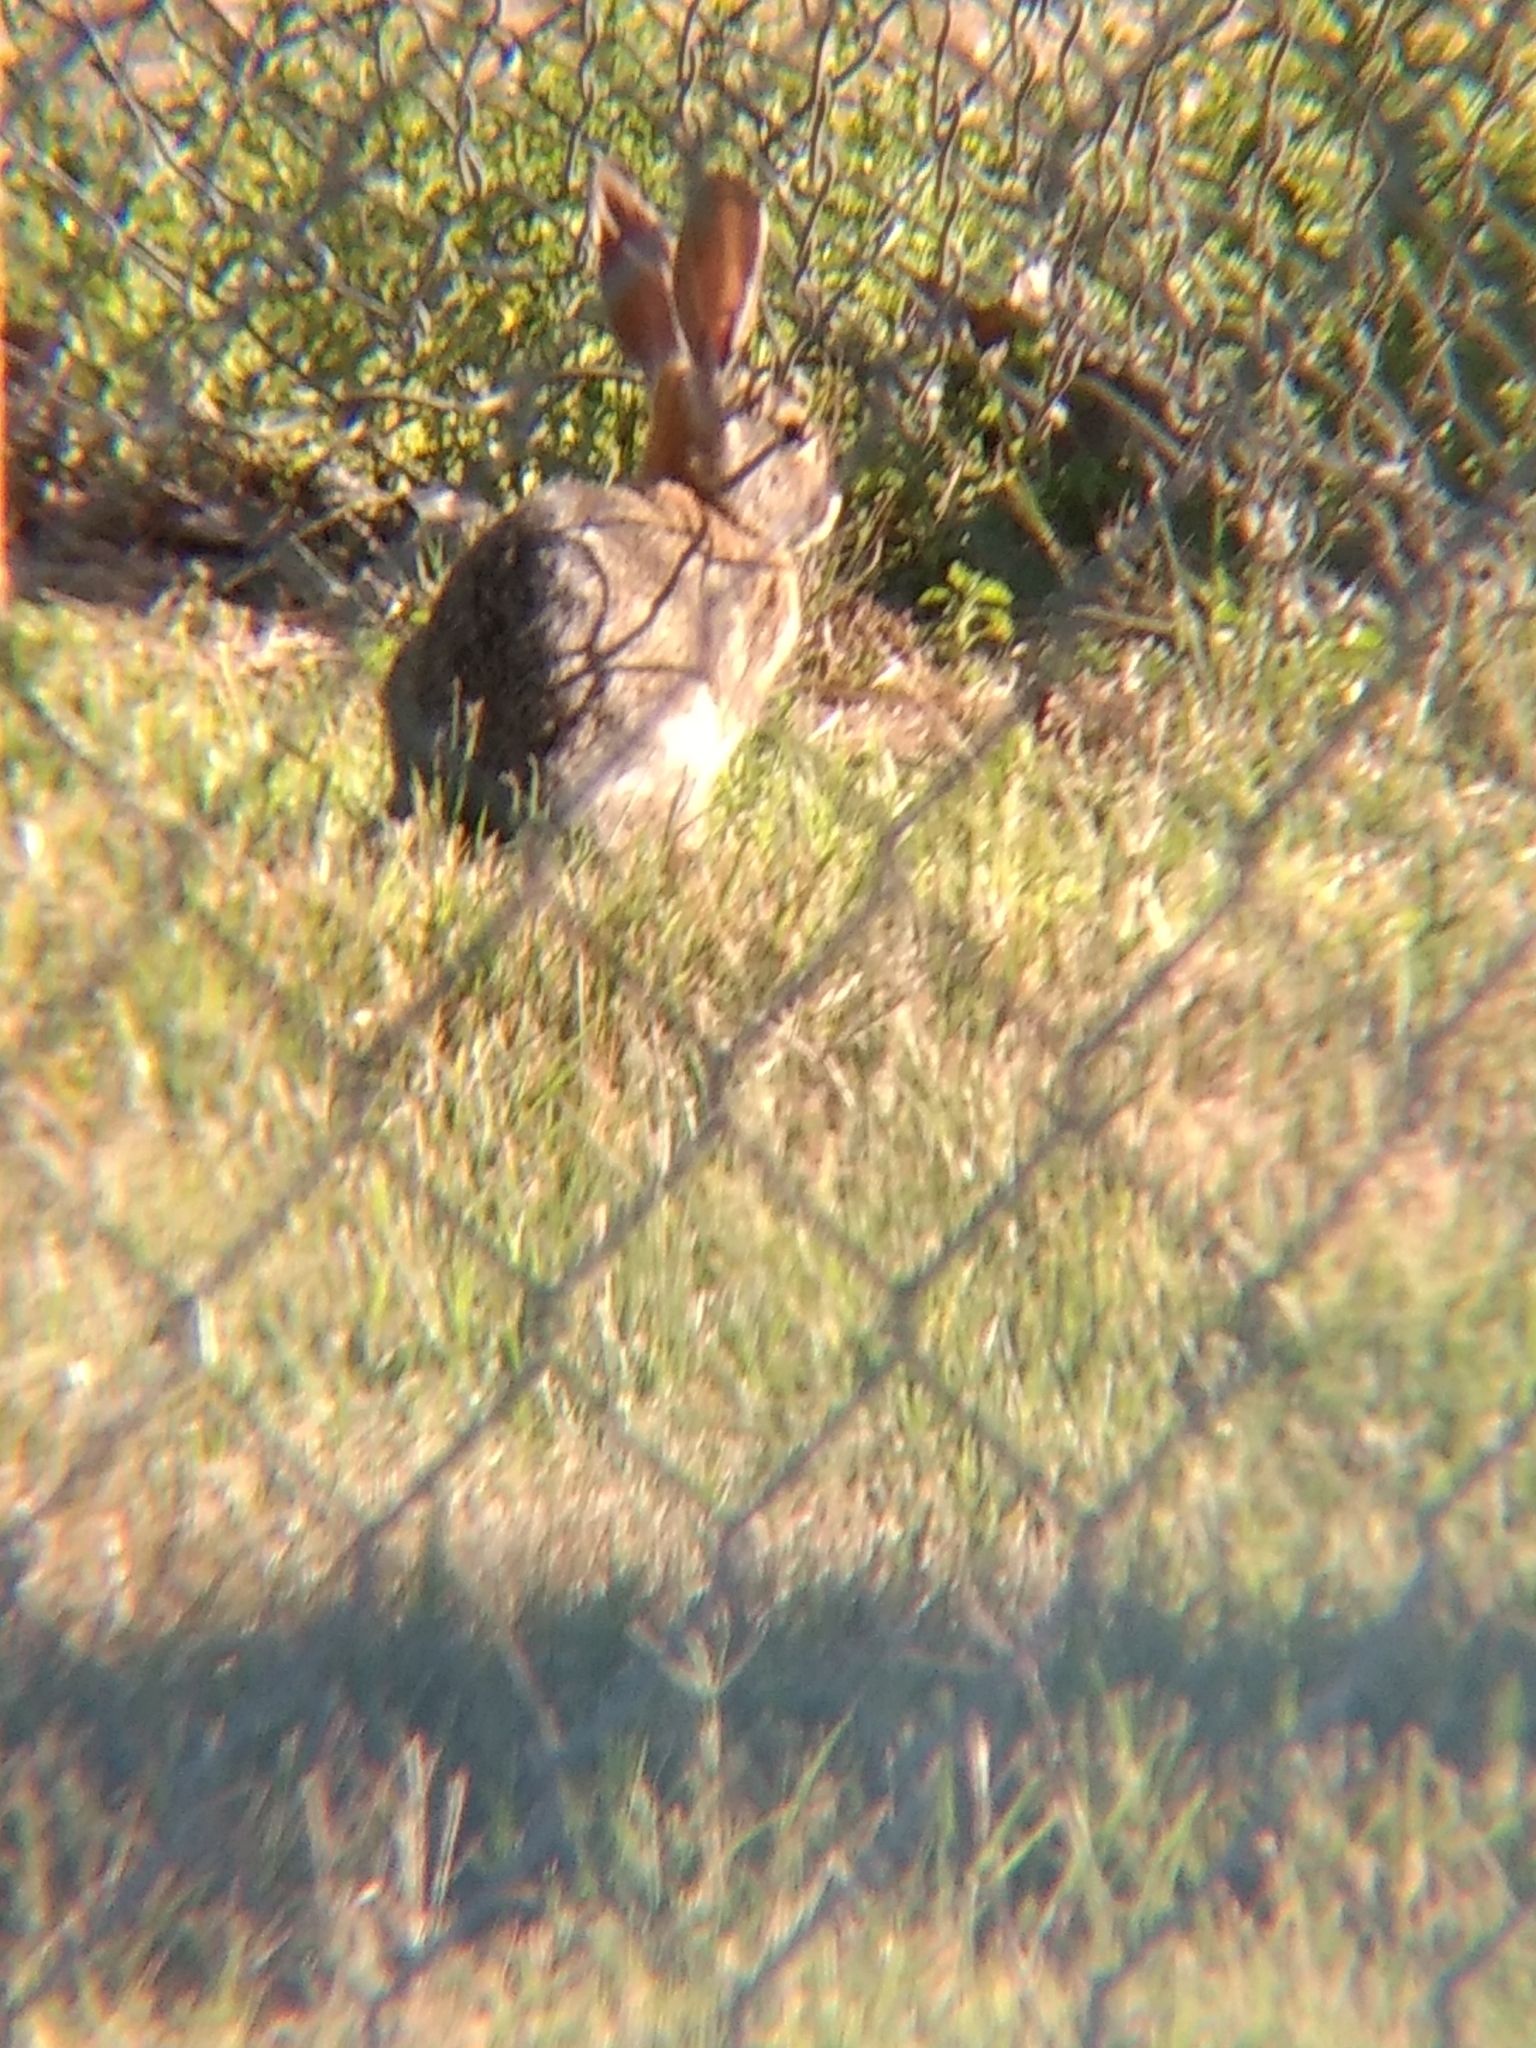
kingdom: Animalia
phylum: Chordata
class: Mammalia
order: Lagomorpha
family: Leporidae
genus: Sylvilagus
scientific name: Sylvilagus audubonii
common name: Desert cottontail
